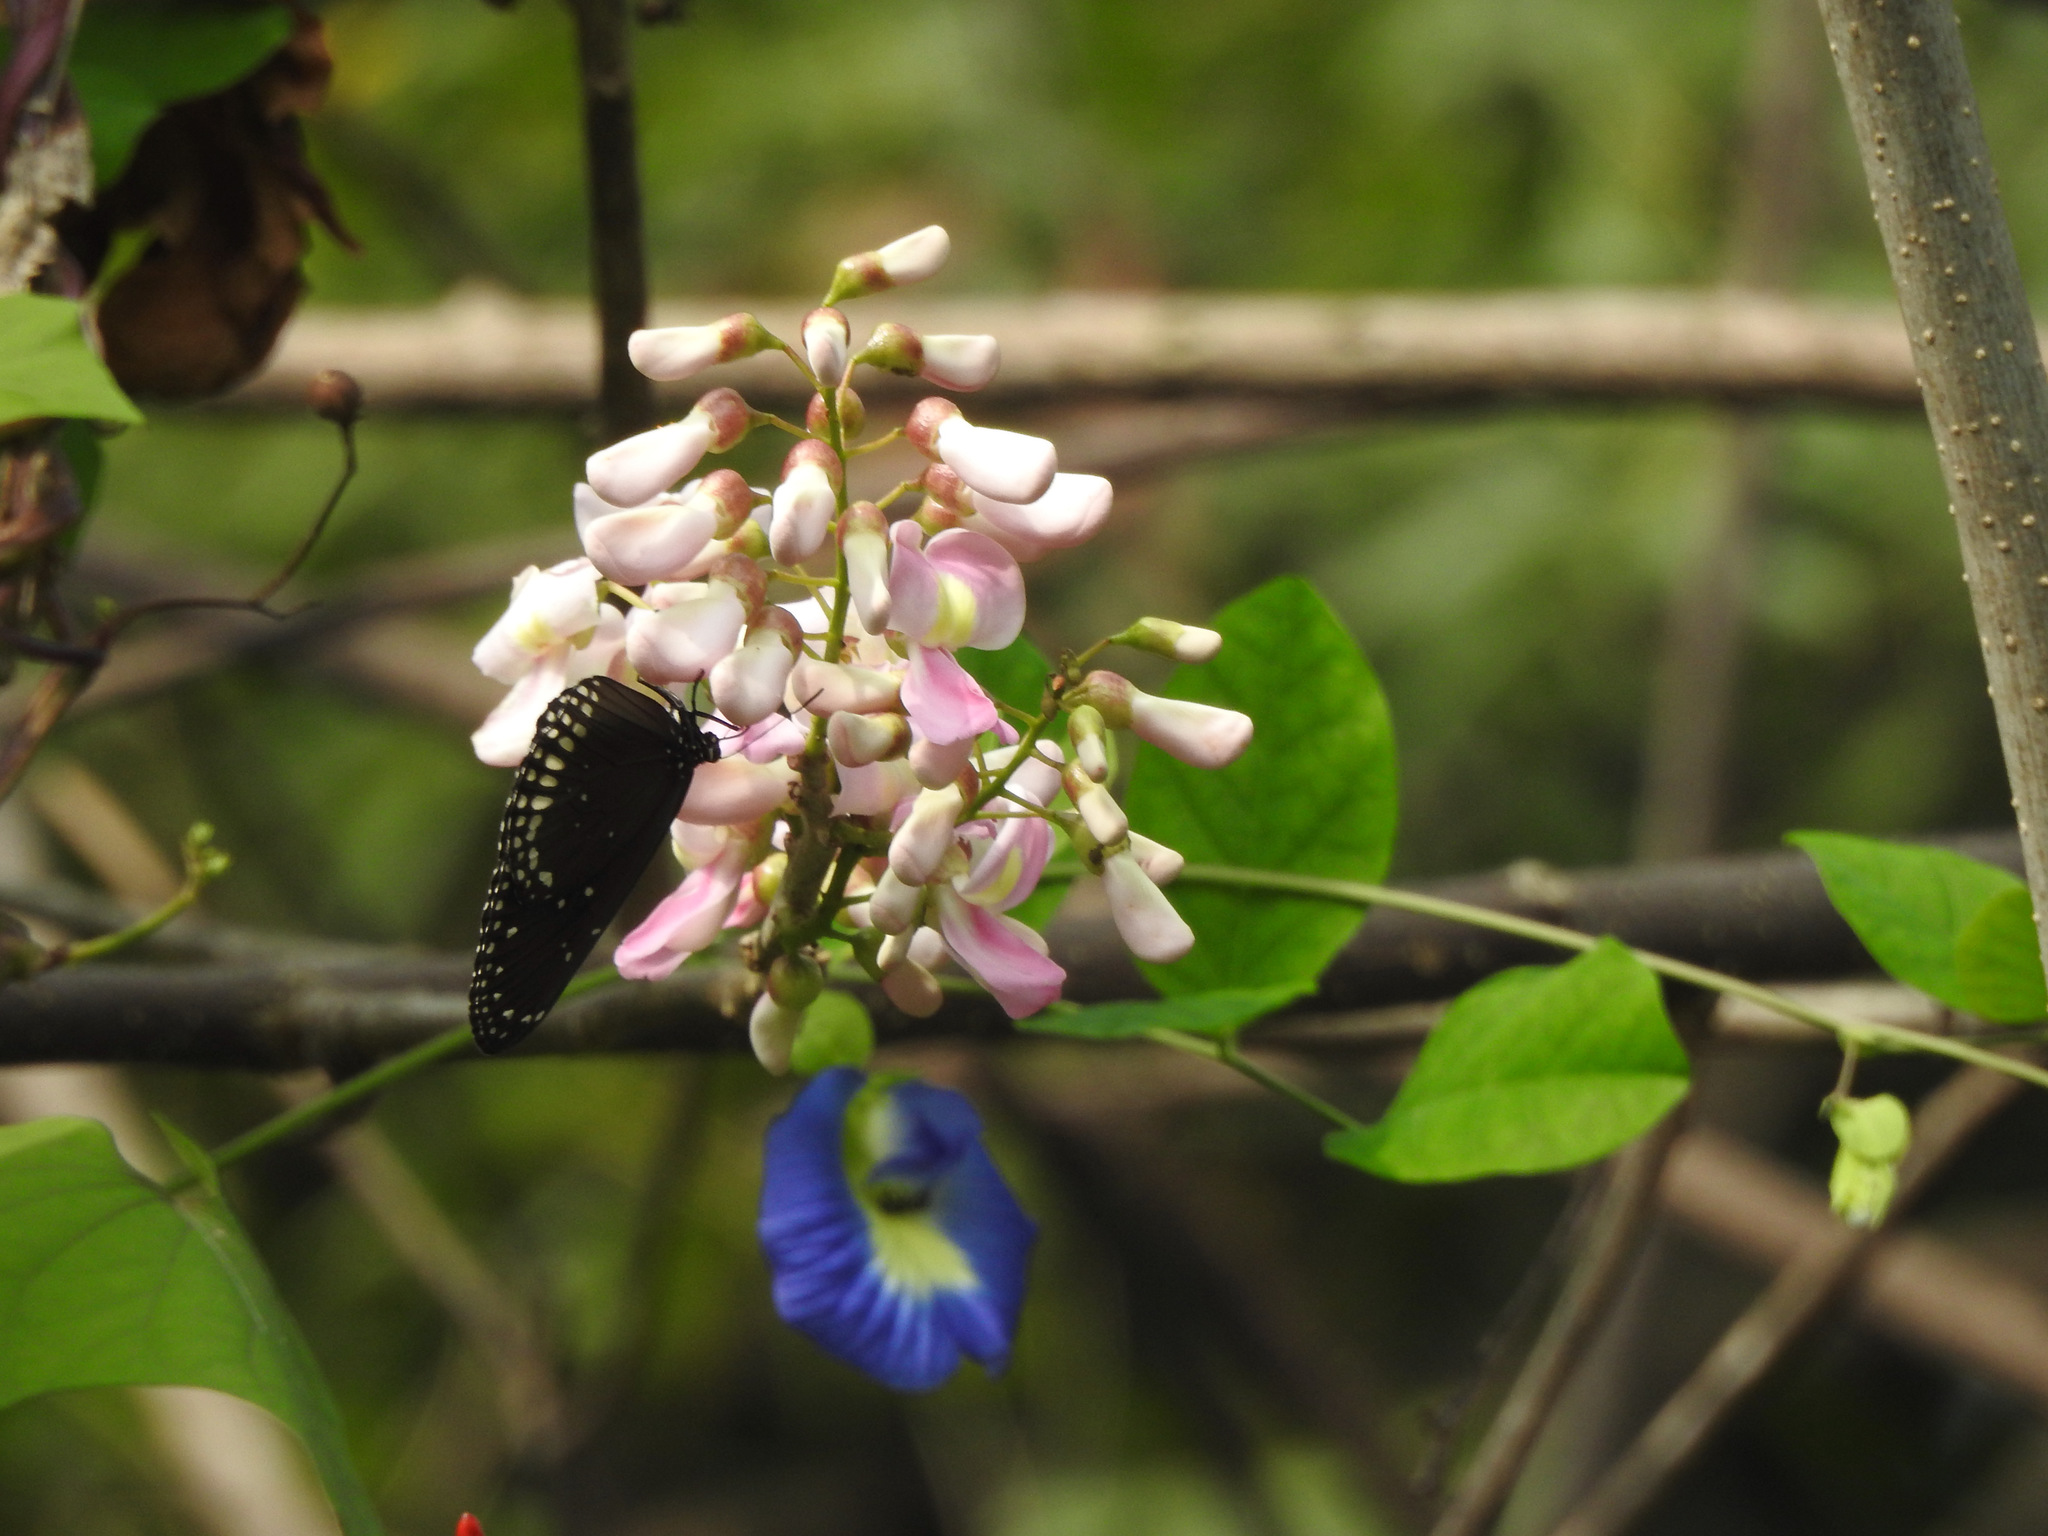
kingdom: Animalia
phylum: Arthropoda
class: Insecta
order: Lepidoptera
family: Nymphalidae
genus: Euploea
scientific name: Euploea sylvester
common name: Double-branded crow butterfly
